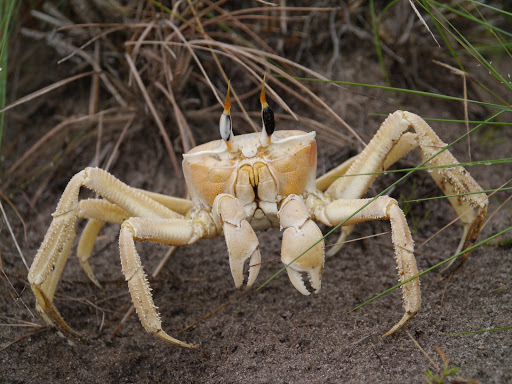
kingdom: Animalia
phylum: Arthropoda
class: Malacostraca
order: Decapoda
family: Ocypodidae
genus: Ocypode
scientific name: Ocypode cursor
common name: Tufted ghost crab
